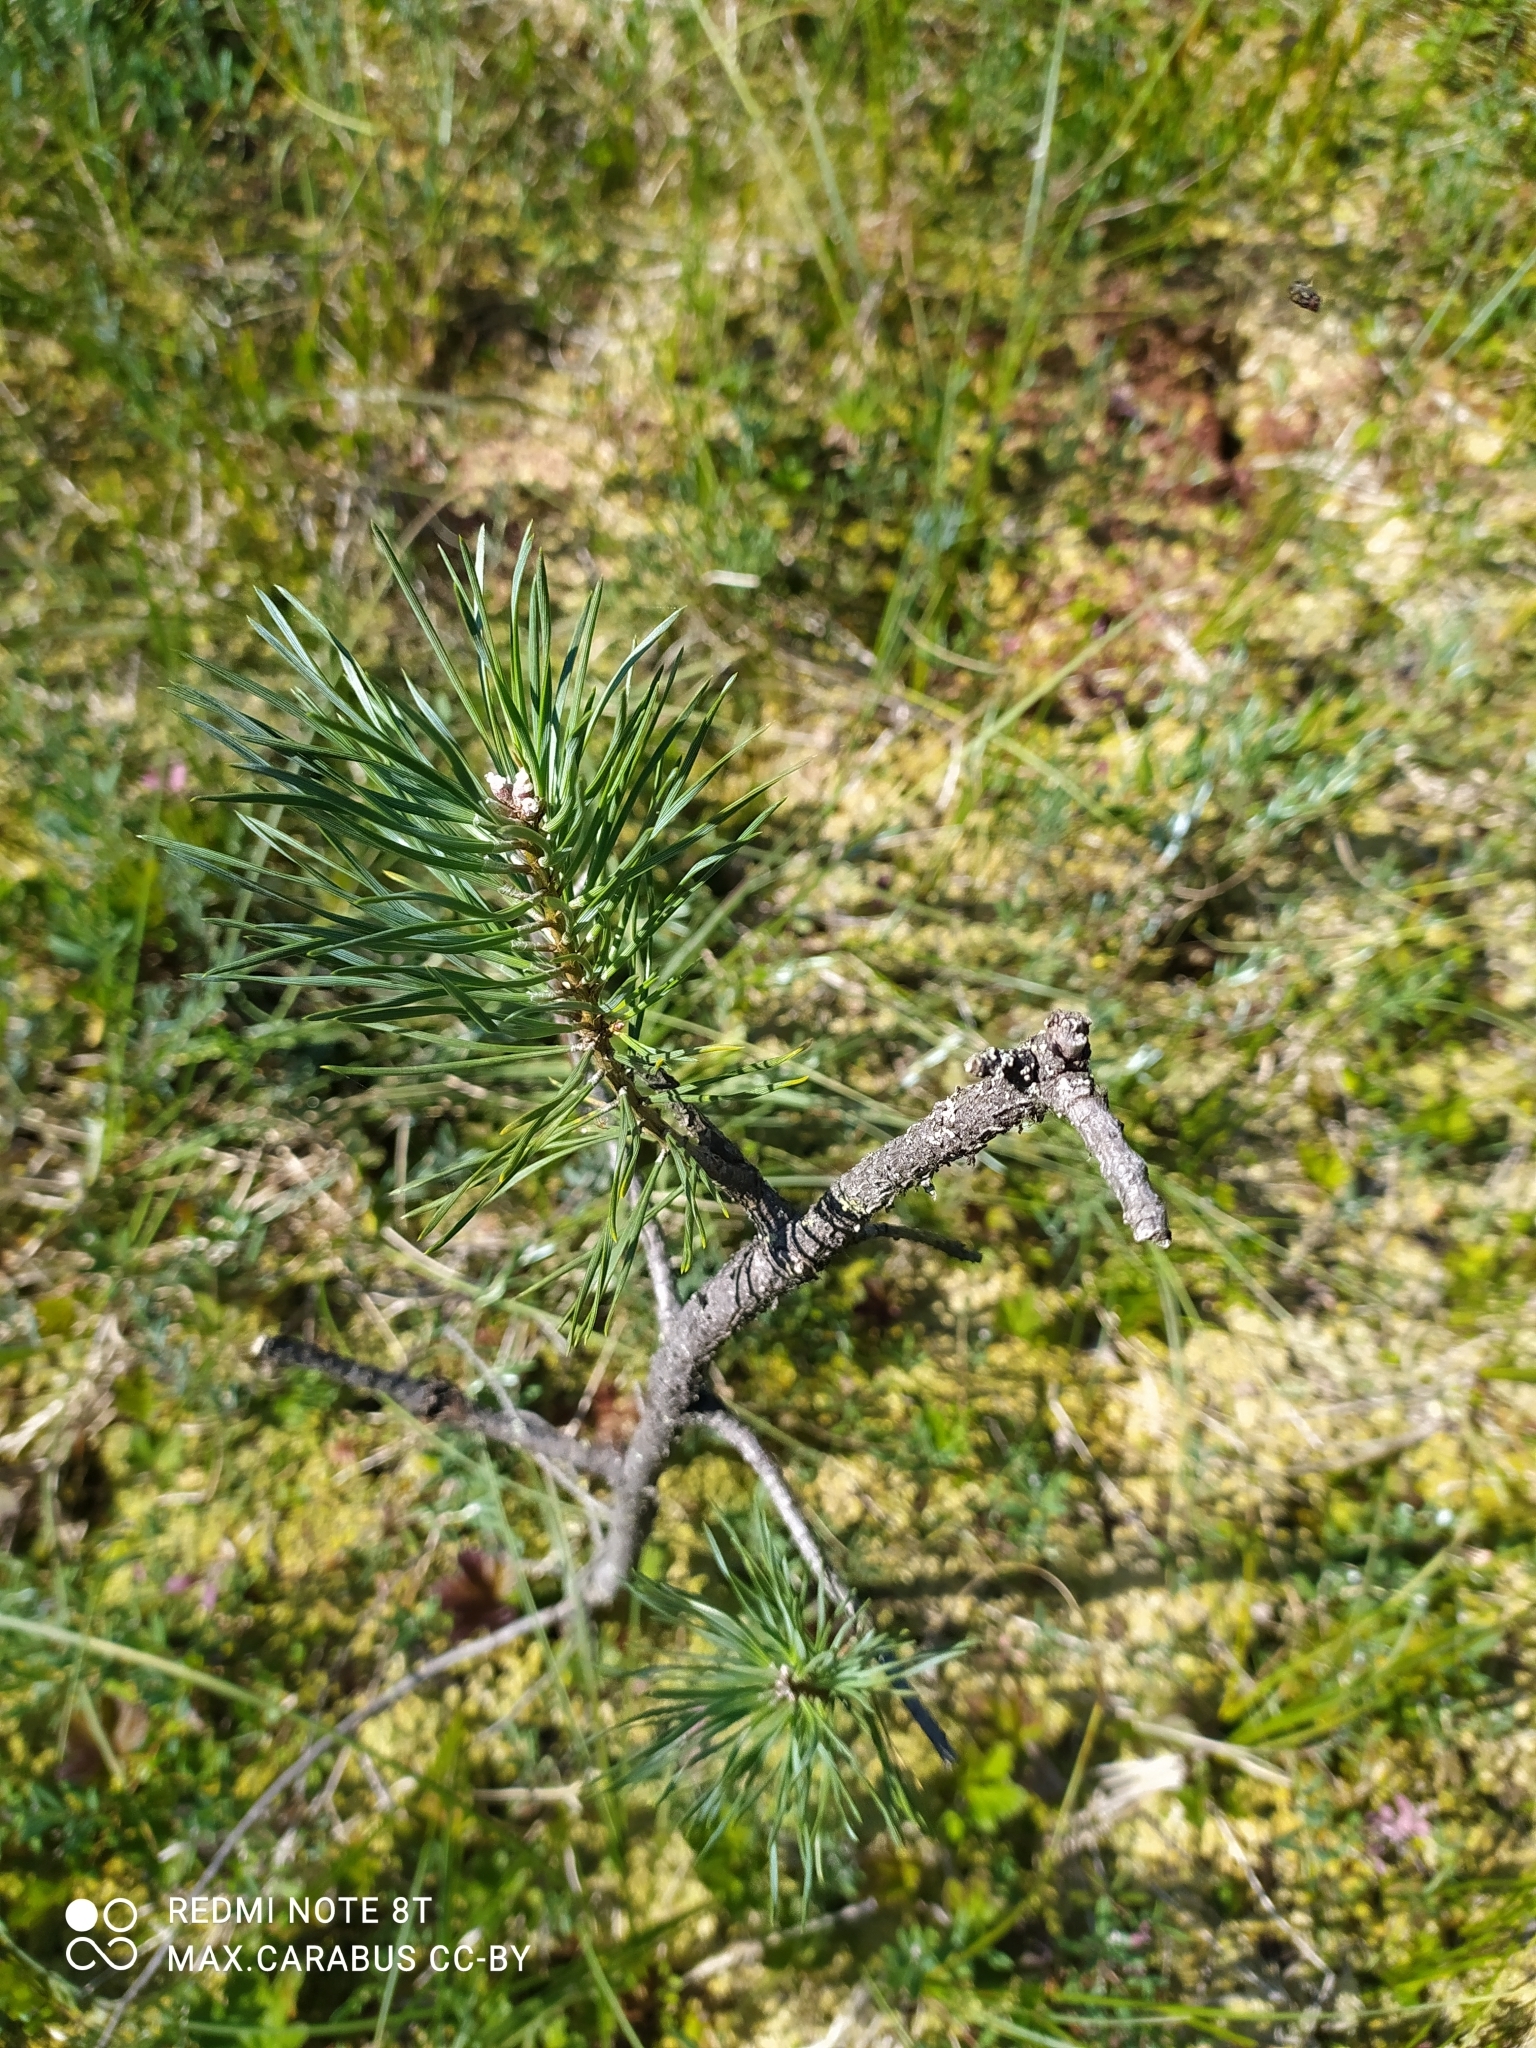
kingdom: Plantae
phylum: Tracheophyta
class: Pinopsida
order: Pinales
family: Pinaceae
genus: Pinus
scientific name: Pinus sylvestris
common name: Scots pine
